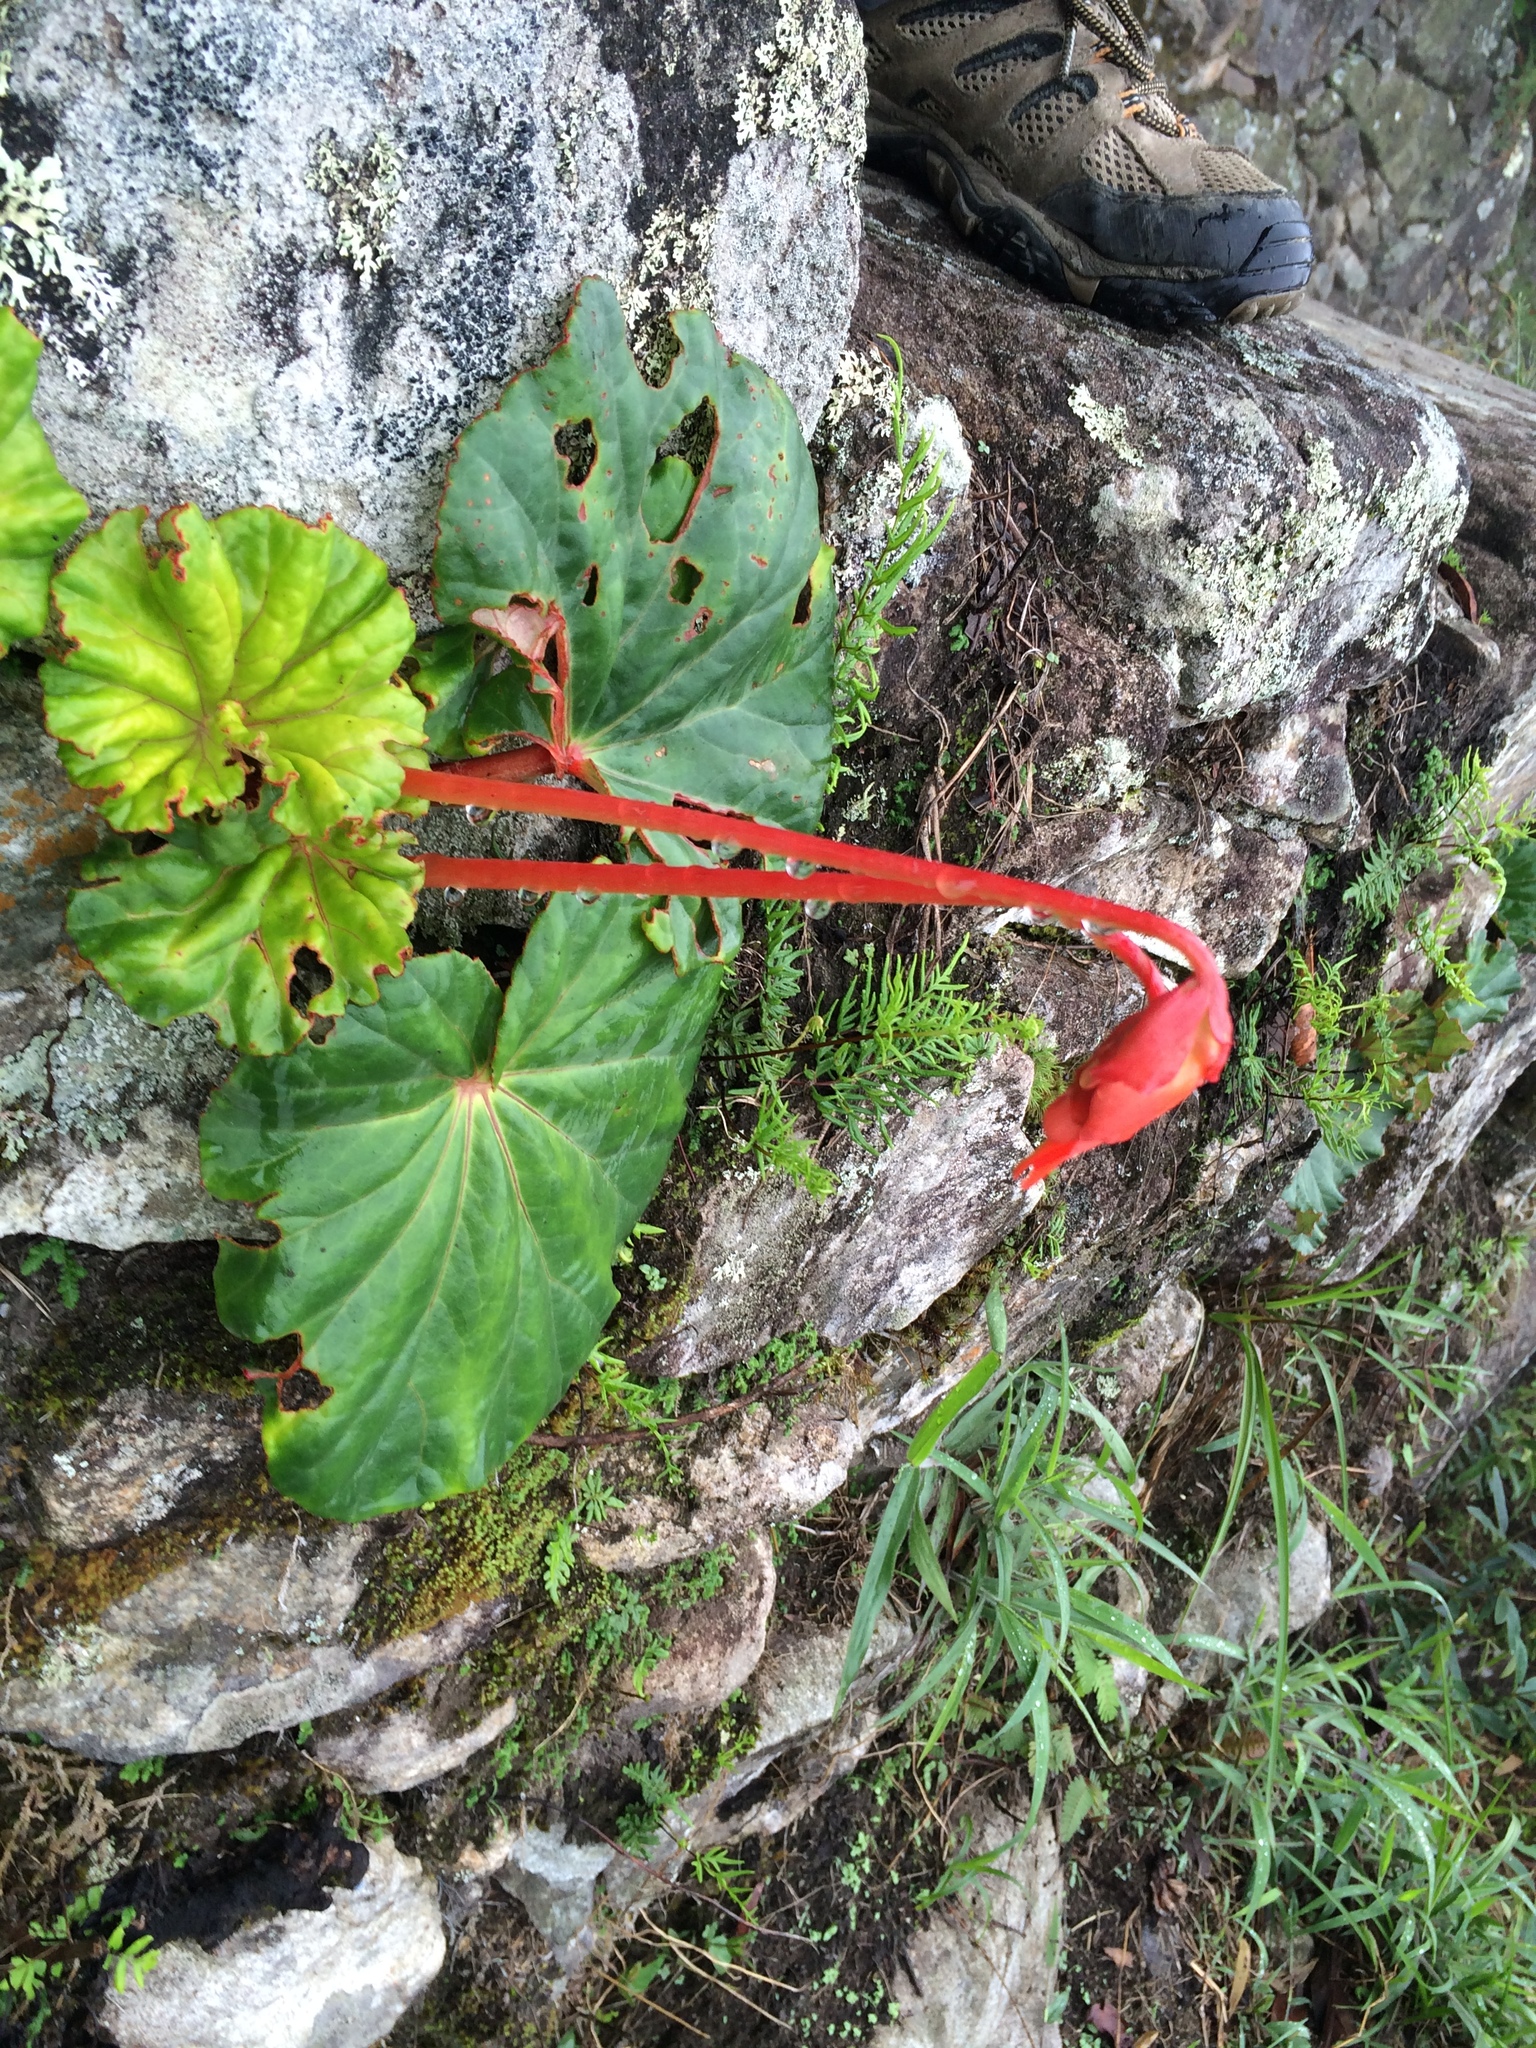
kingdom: Plantae
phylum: Tracheophyta
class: Magnoliopsida
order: Cucurbitales
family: Begoniaceae
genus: Begonia
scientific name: Begonia veitchii
